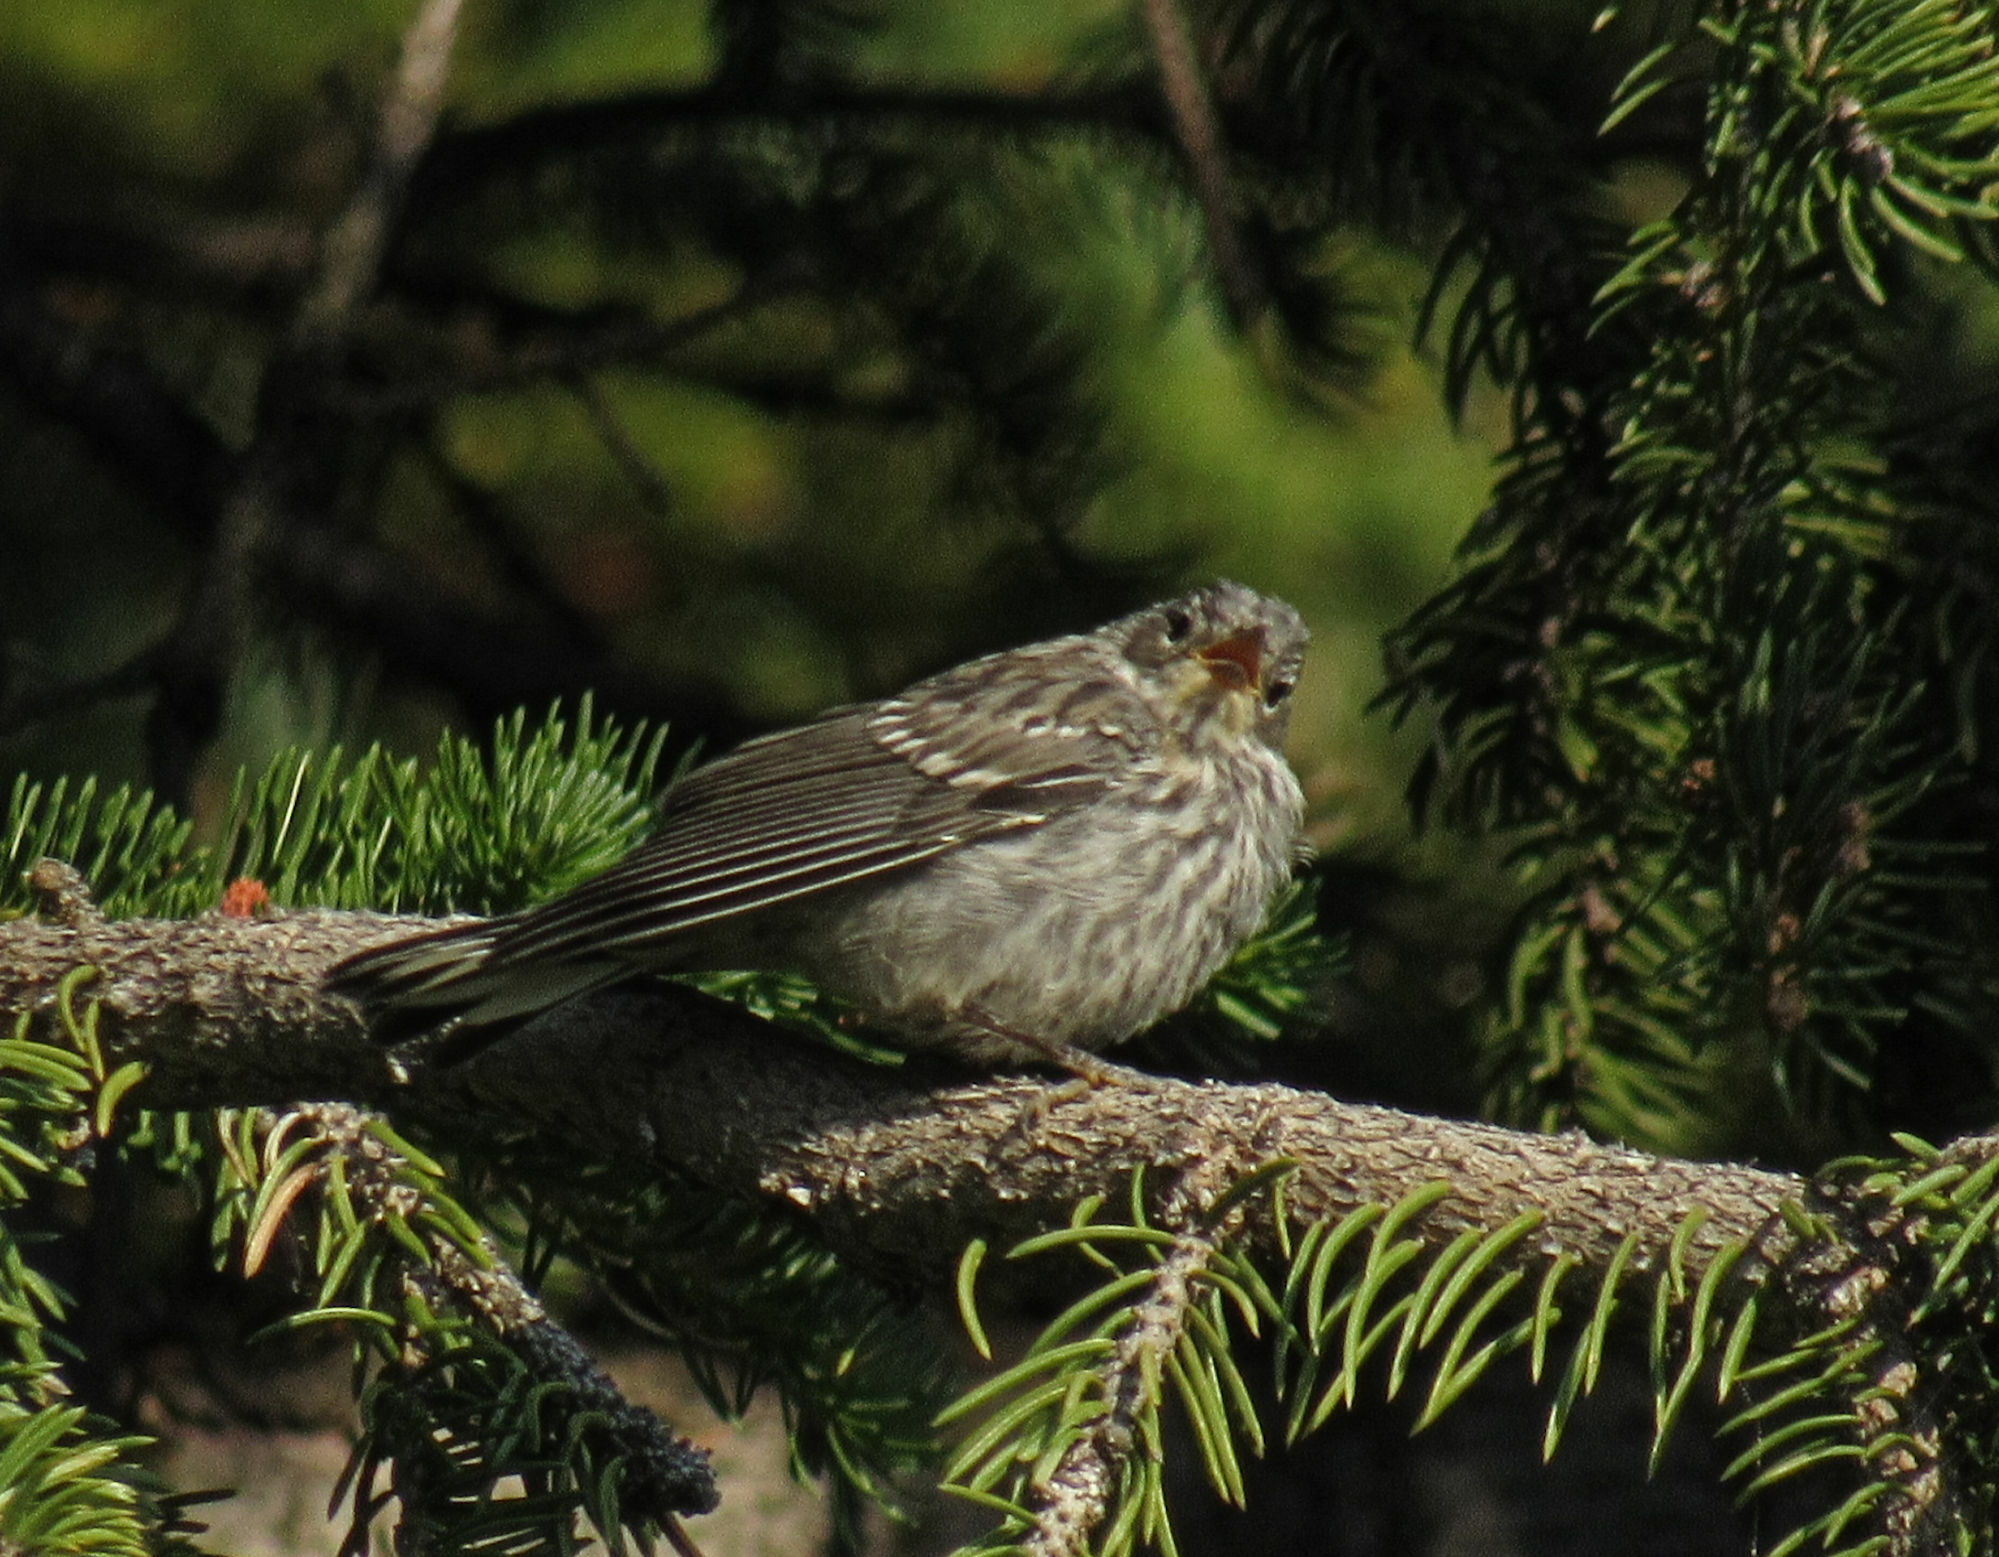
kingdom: Animalia
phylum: Chordata
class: Aves
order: Passeriformes
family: Parulidae
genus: Setophaga
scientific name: Setophaga coronata
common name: Myrtle warbler
